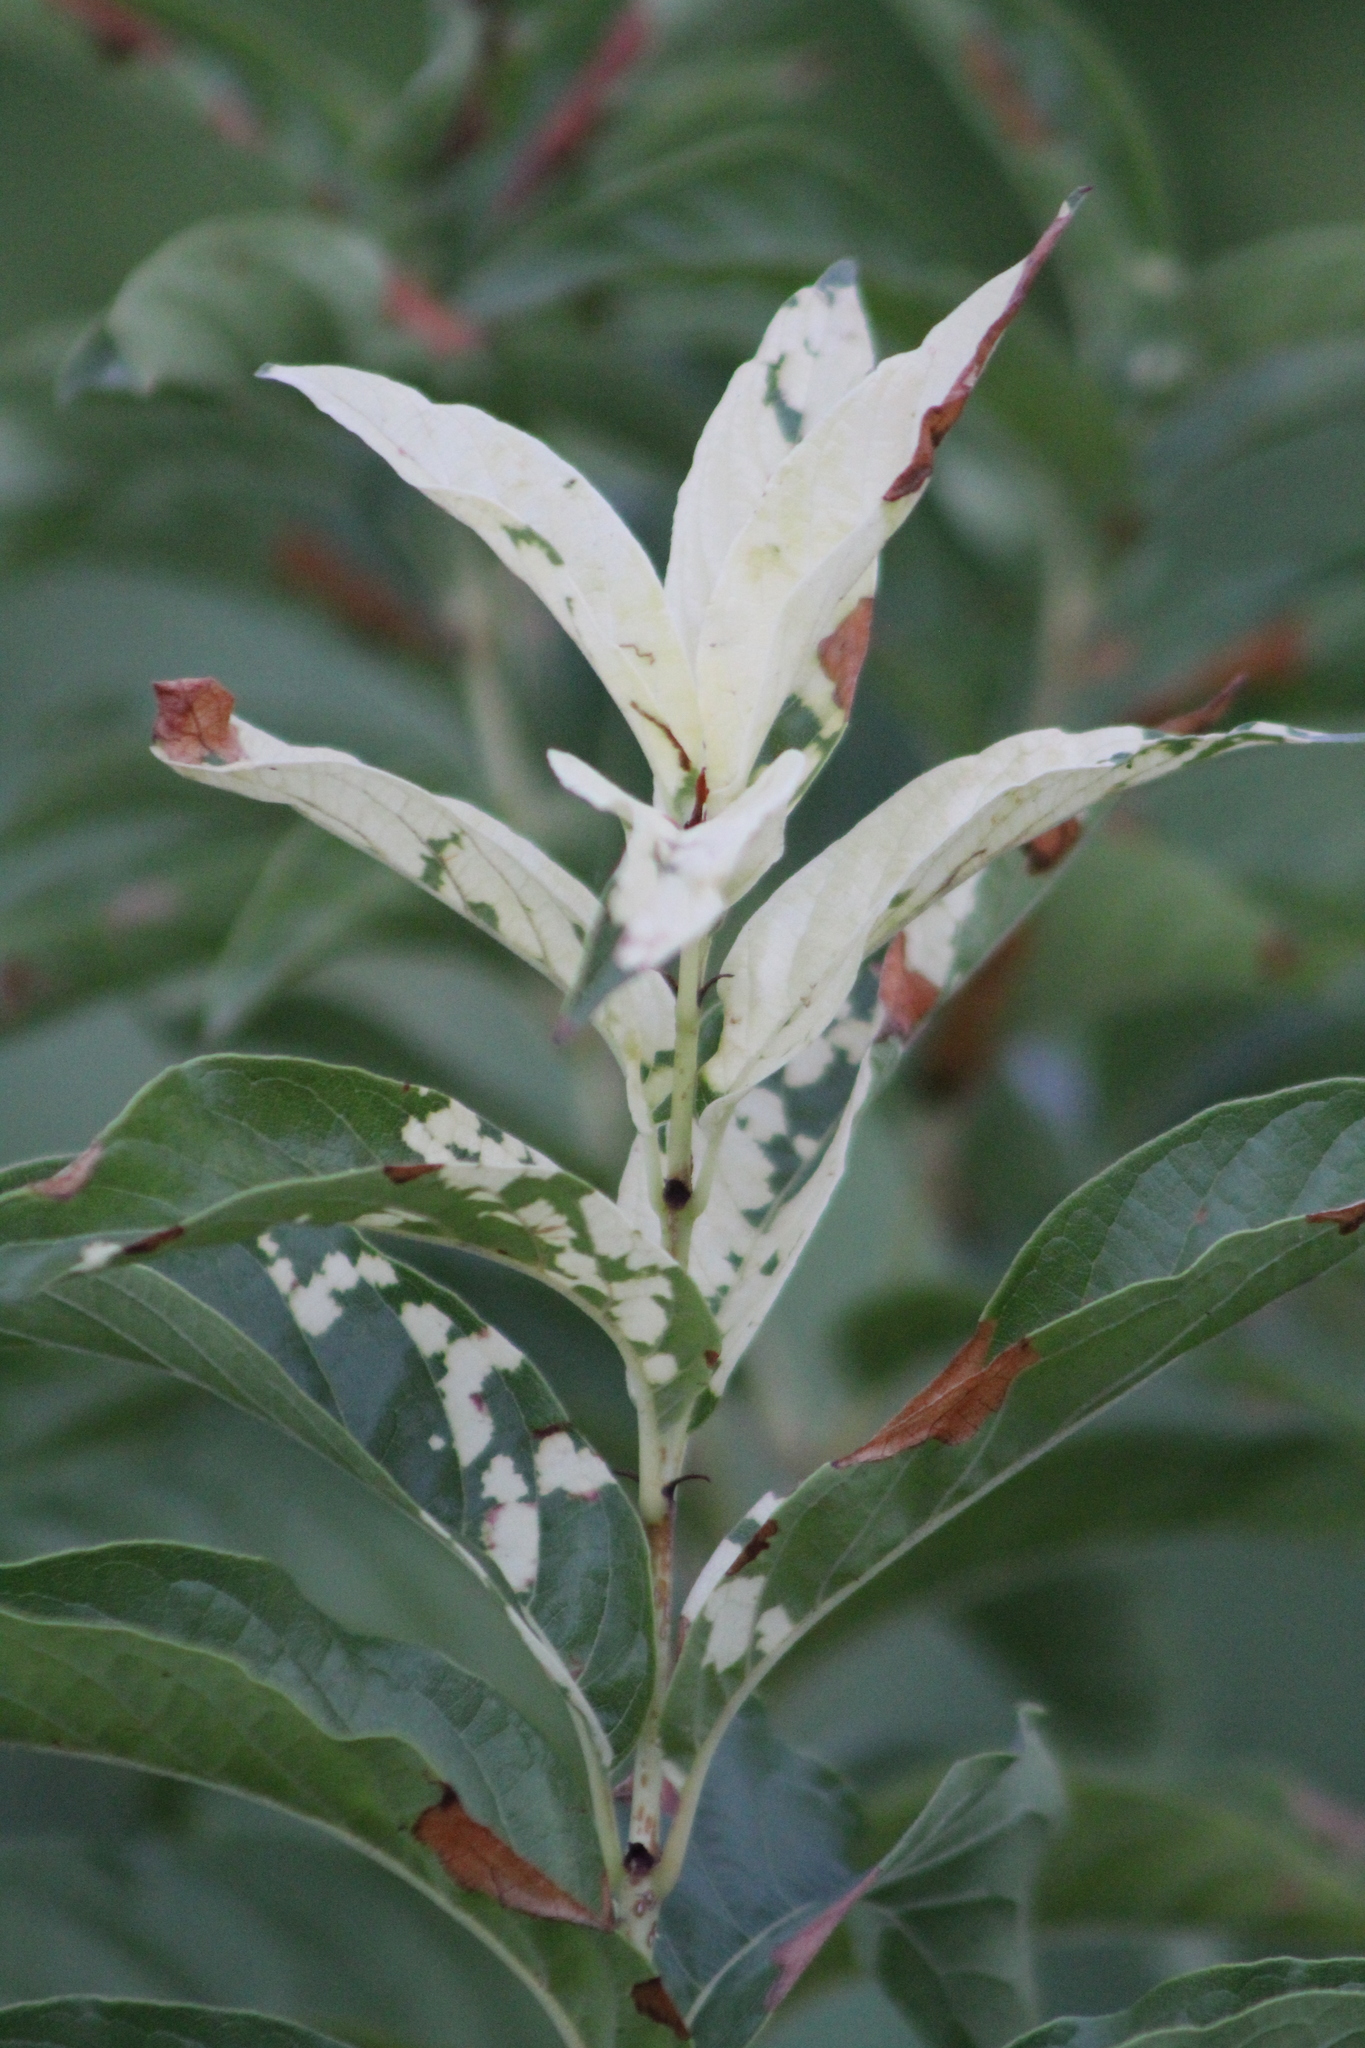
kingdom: Plantae
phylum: Tracheophyta
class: Magnoliopsida
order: Gentianales
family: Rubiaceae
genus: Cephalanthus
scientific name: Cephalanthus occidentalis
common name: Button-willow
